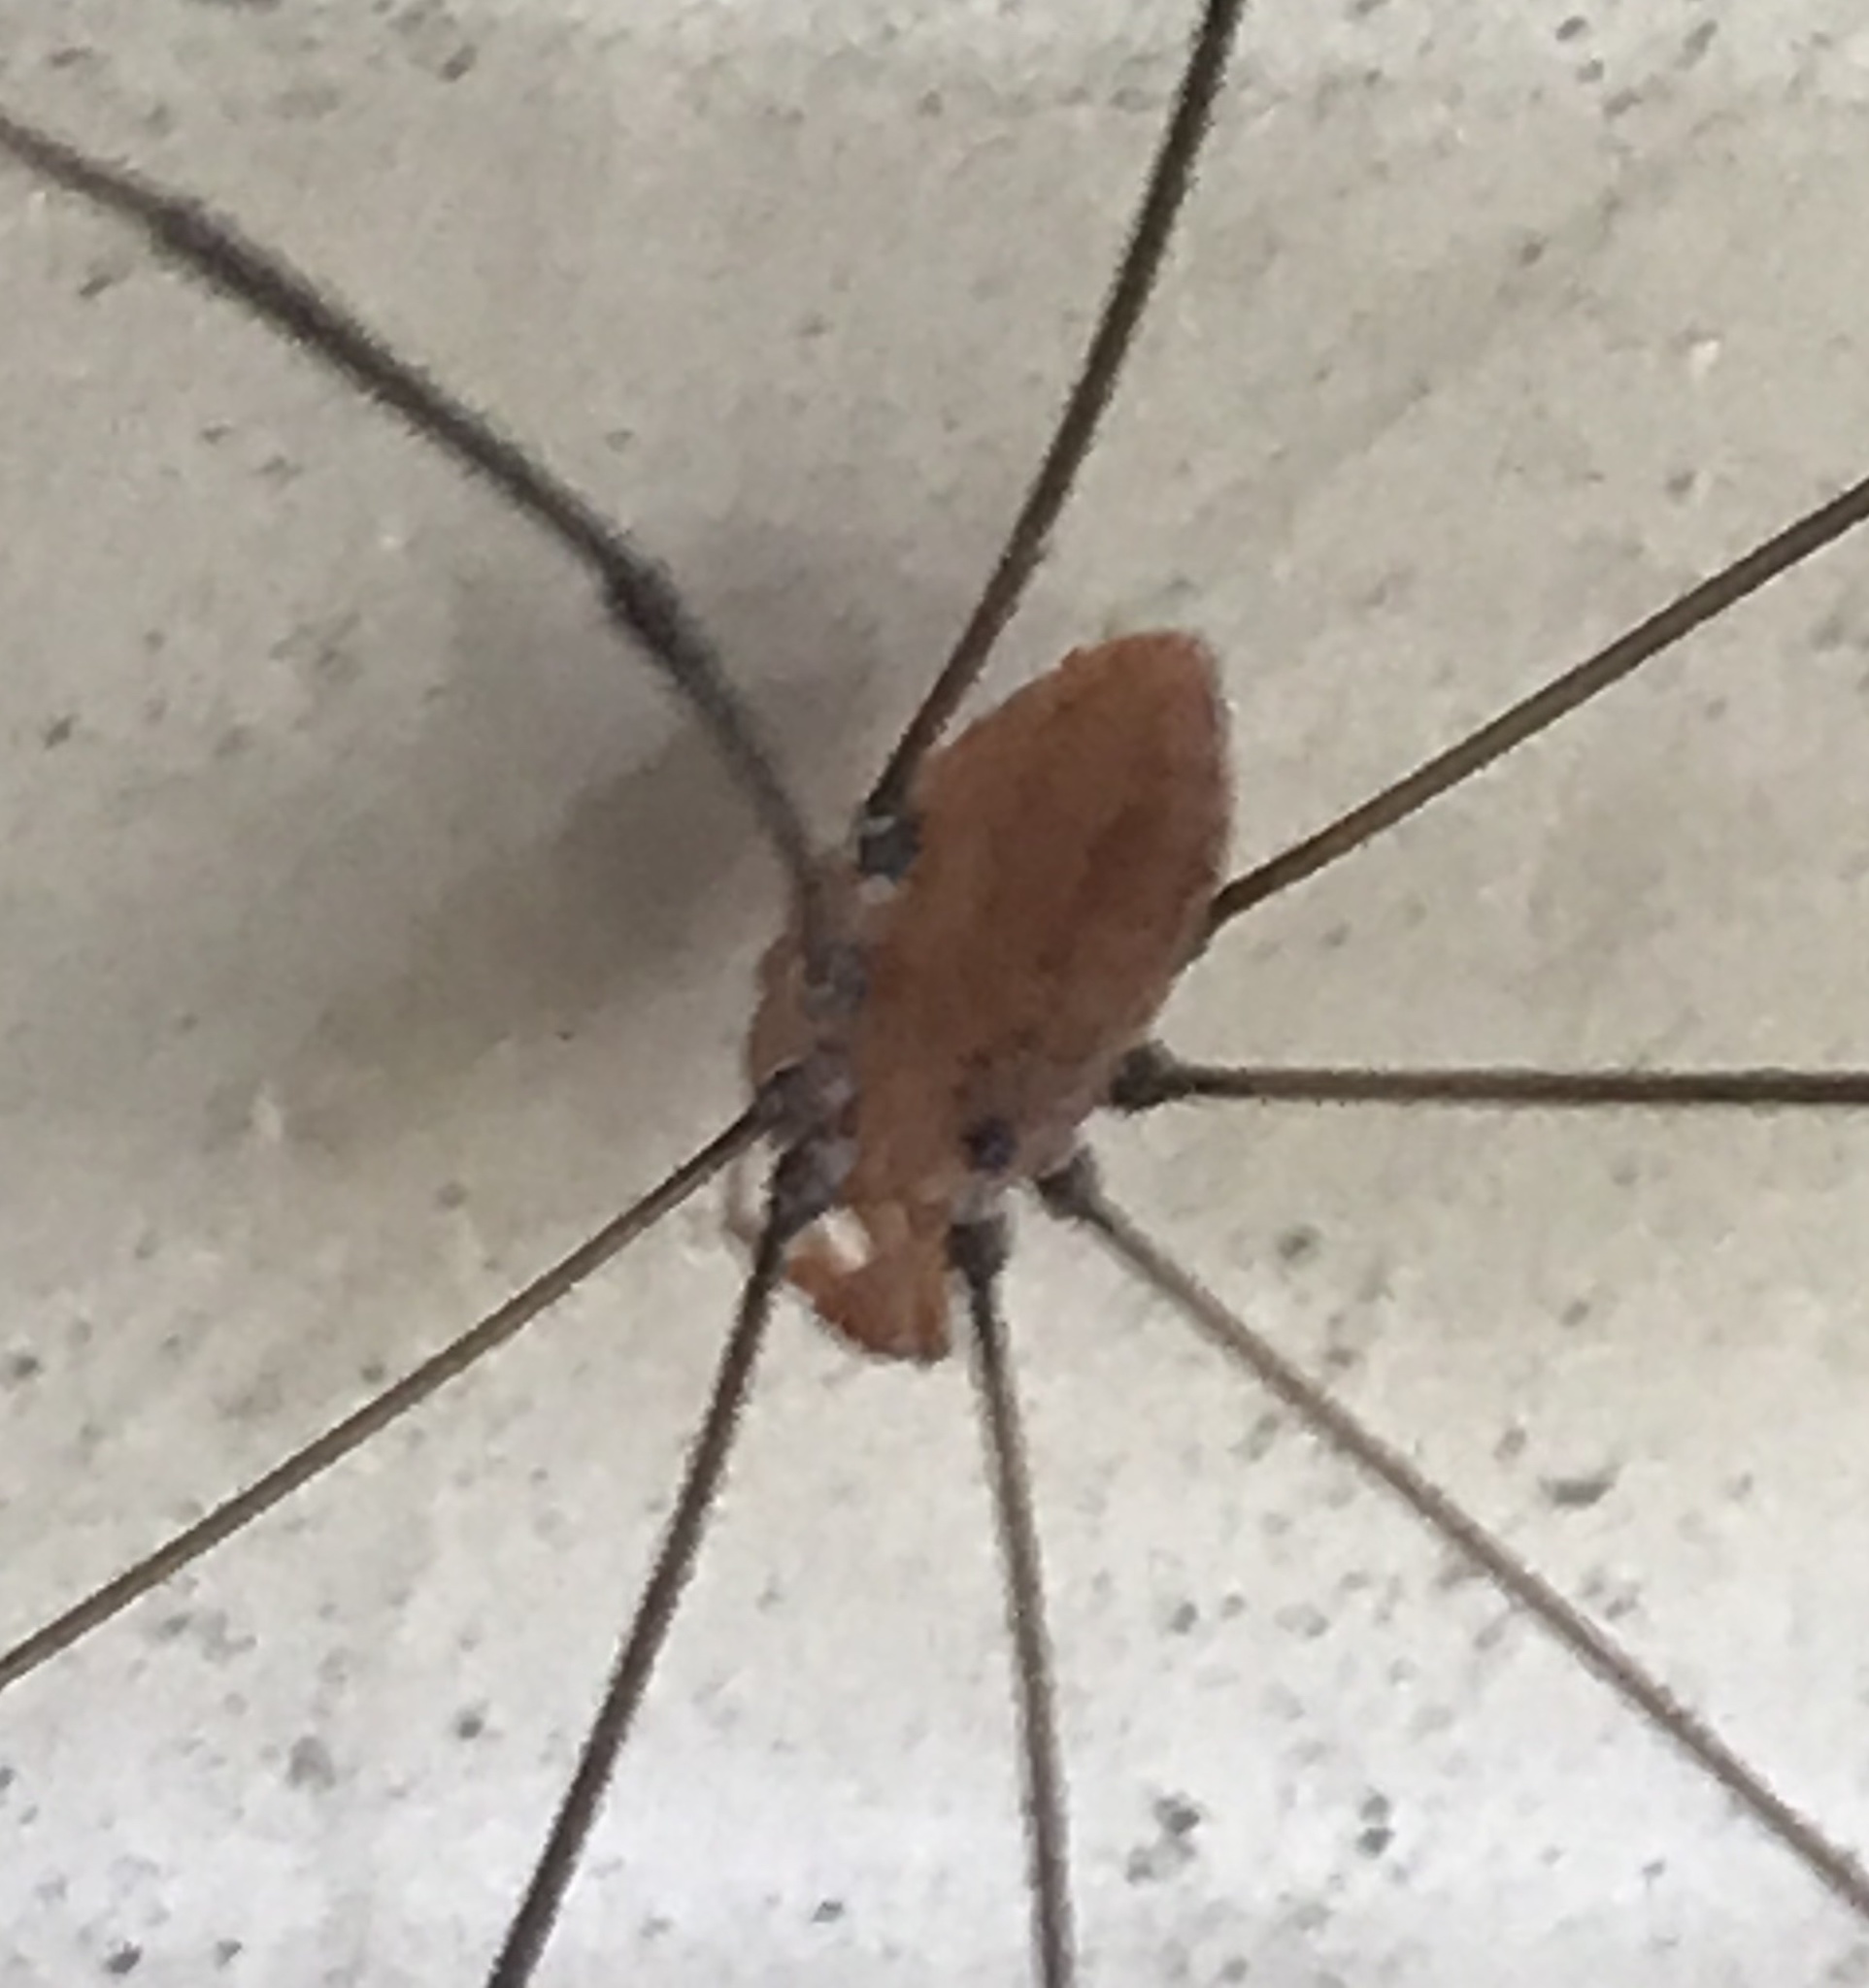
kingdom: Animalia
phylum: Arthropoda
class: Arachnida
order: Opiliones
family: Sclerosomatidae
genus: Leiobunum
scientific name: Leiobunum vittatum
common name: Eastern harvestman
